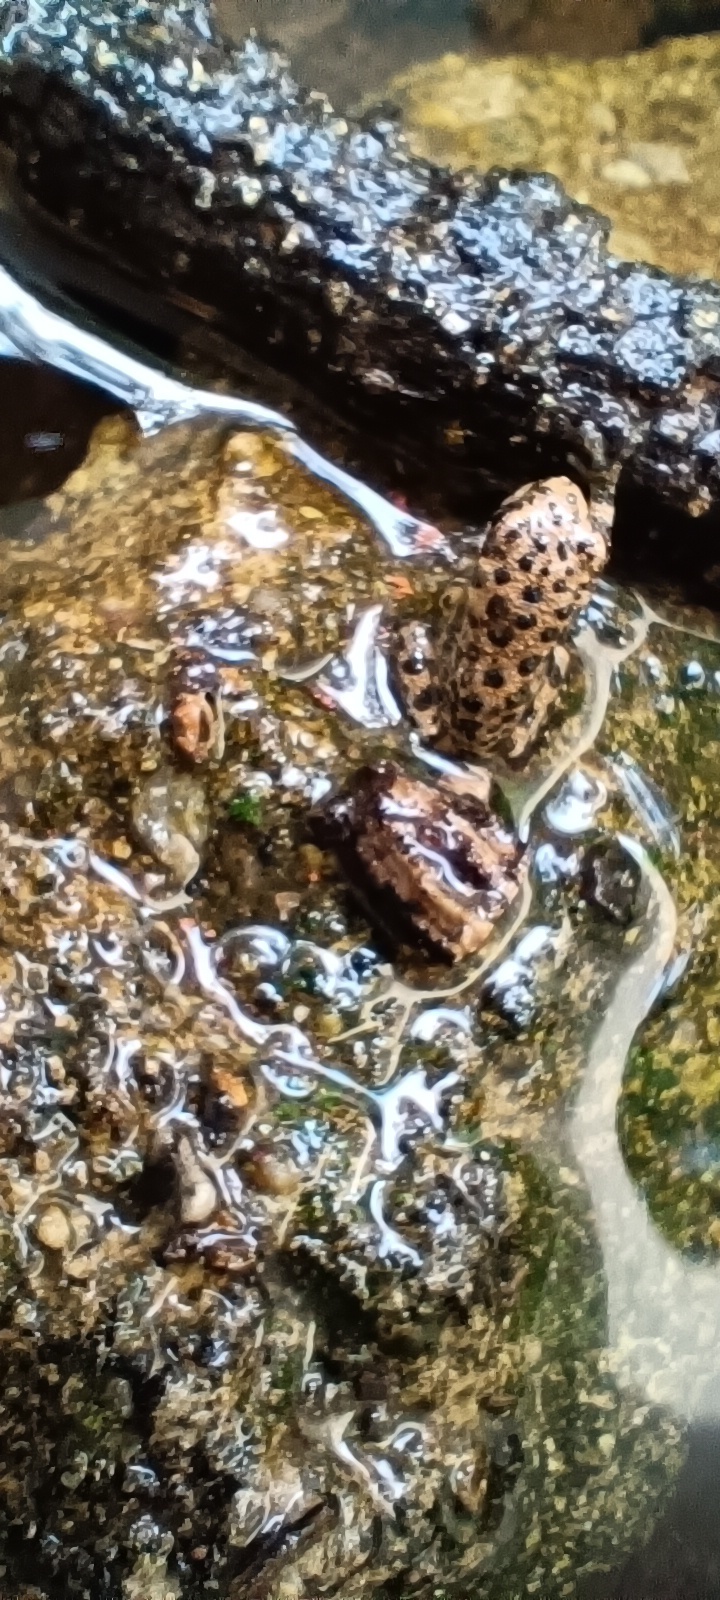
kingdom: Animalia
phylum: Chordata
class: Amphibia
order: Anura
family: Hylidae
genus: Dryophytes
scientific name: Dryophytes arenicolor
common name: Canyon treefrog
